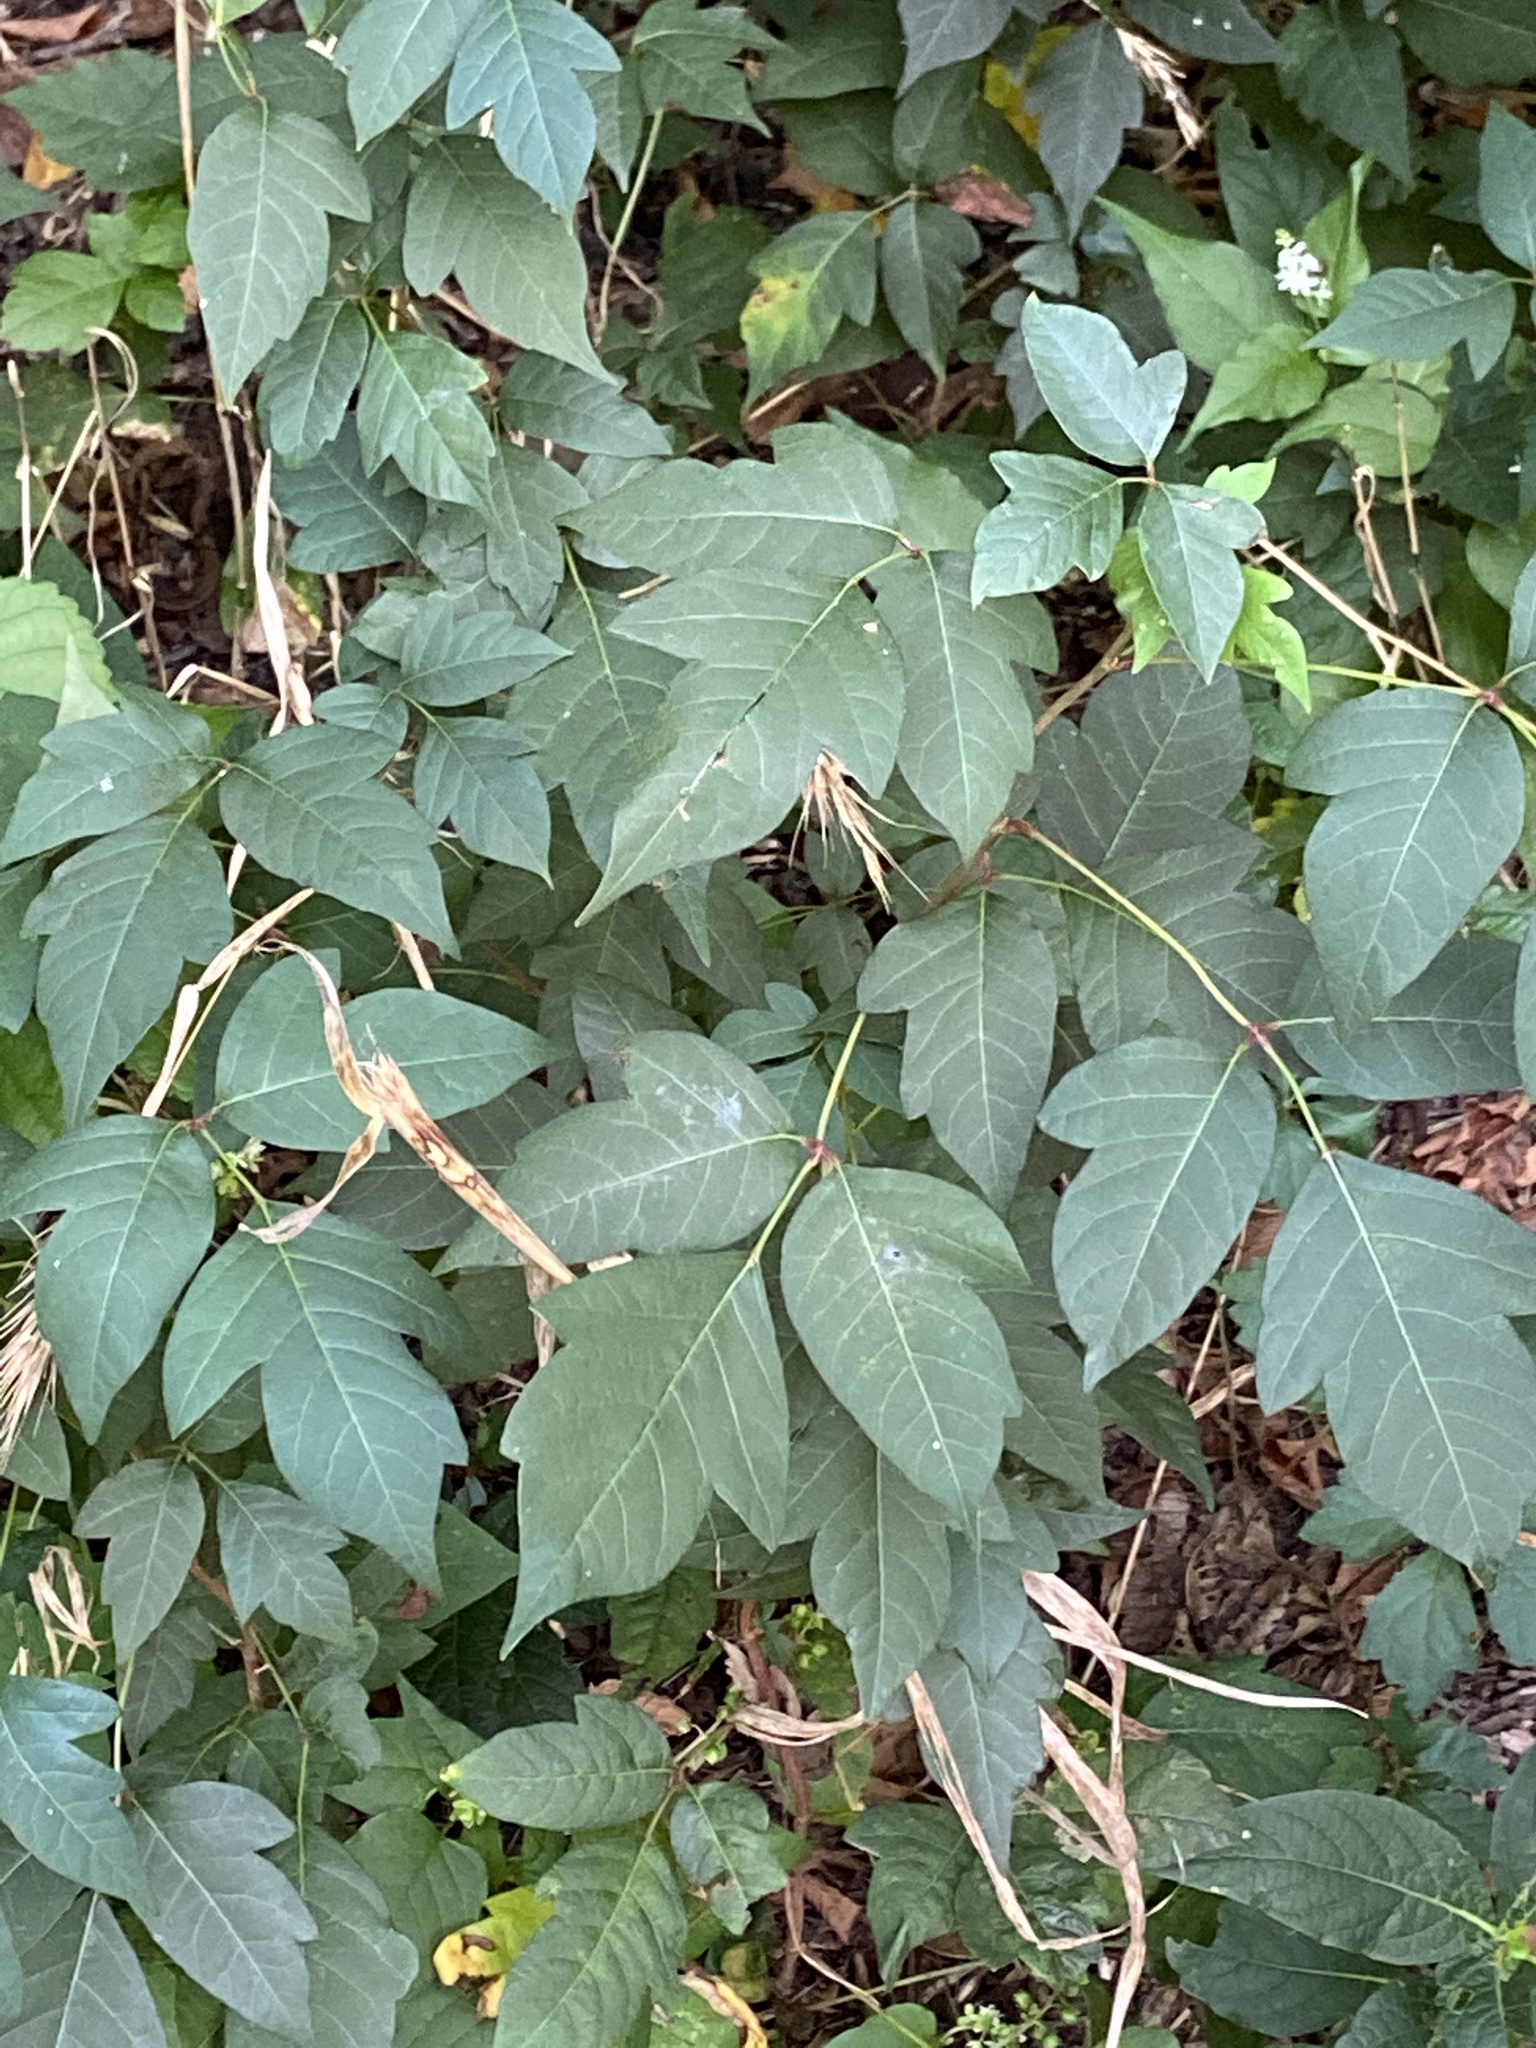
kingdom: Plantae
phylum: Tracheophyta
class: Magnoliopsida
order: Sapindales
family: Anacardiaceae
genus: Toxicodendron
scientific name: Toxicodendron radicans
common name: Poison ivy
